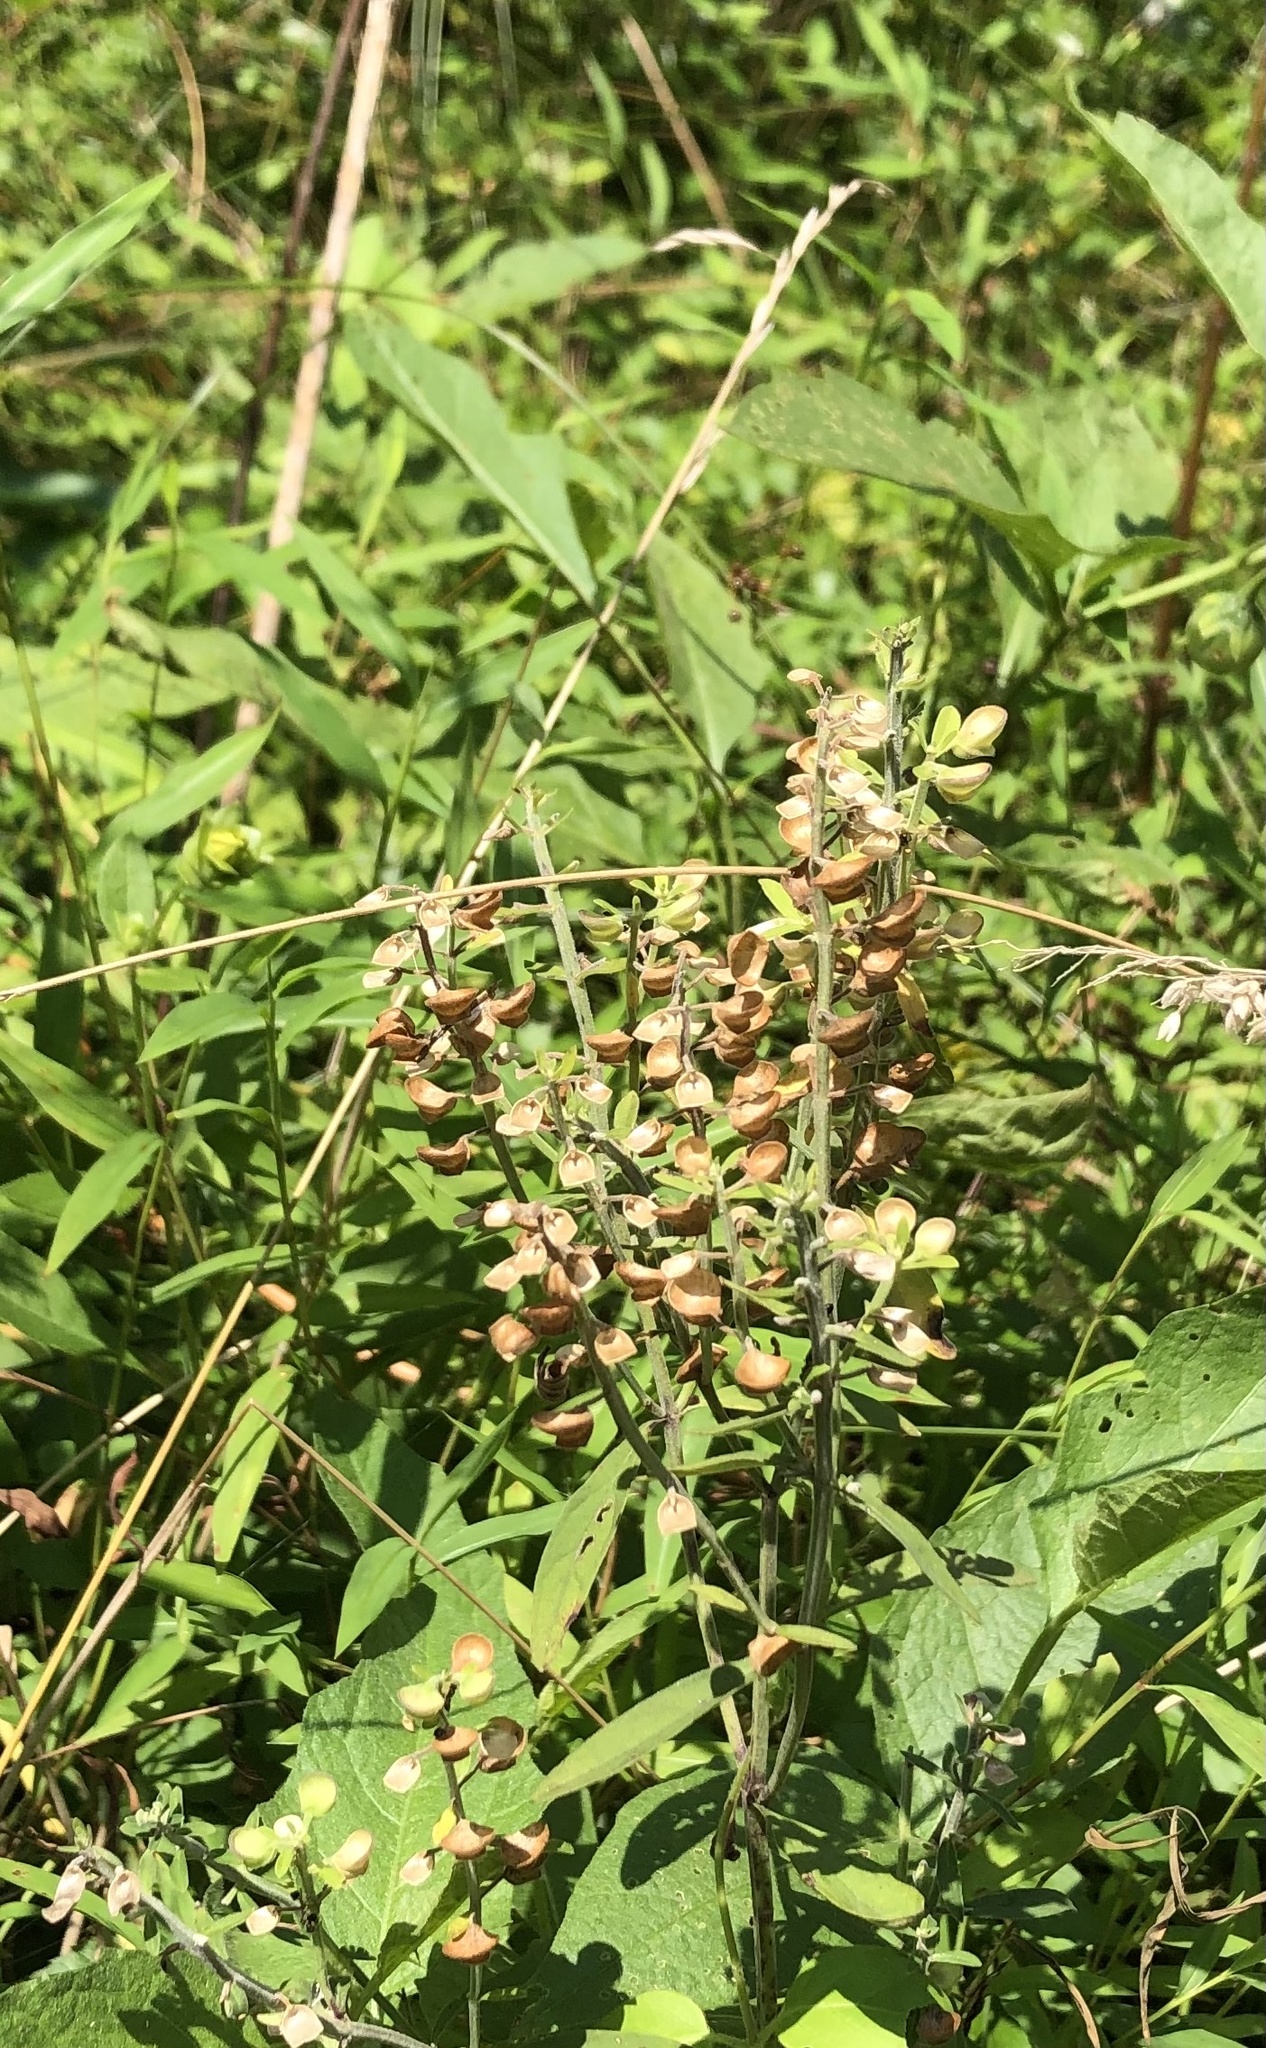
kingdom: Plantae
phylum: Tracheophyta
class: Magnoliopsida
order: Lamiales
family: Lamiaceae
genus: Scutellaria
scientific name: Scutellaria integrifolia
